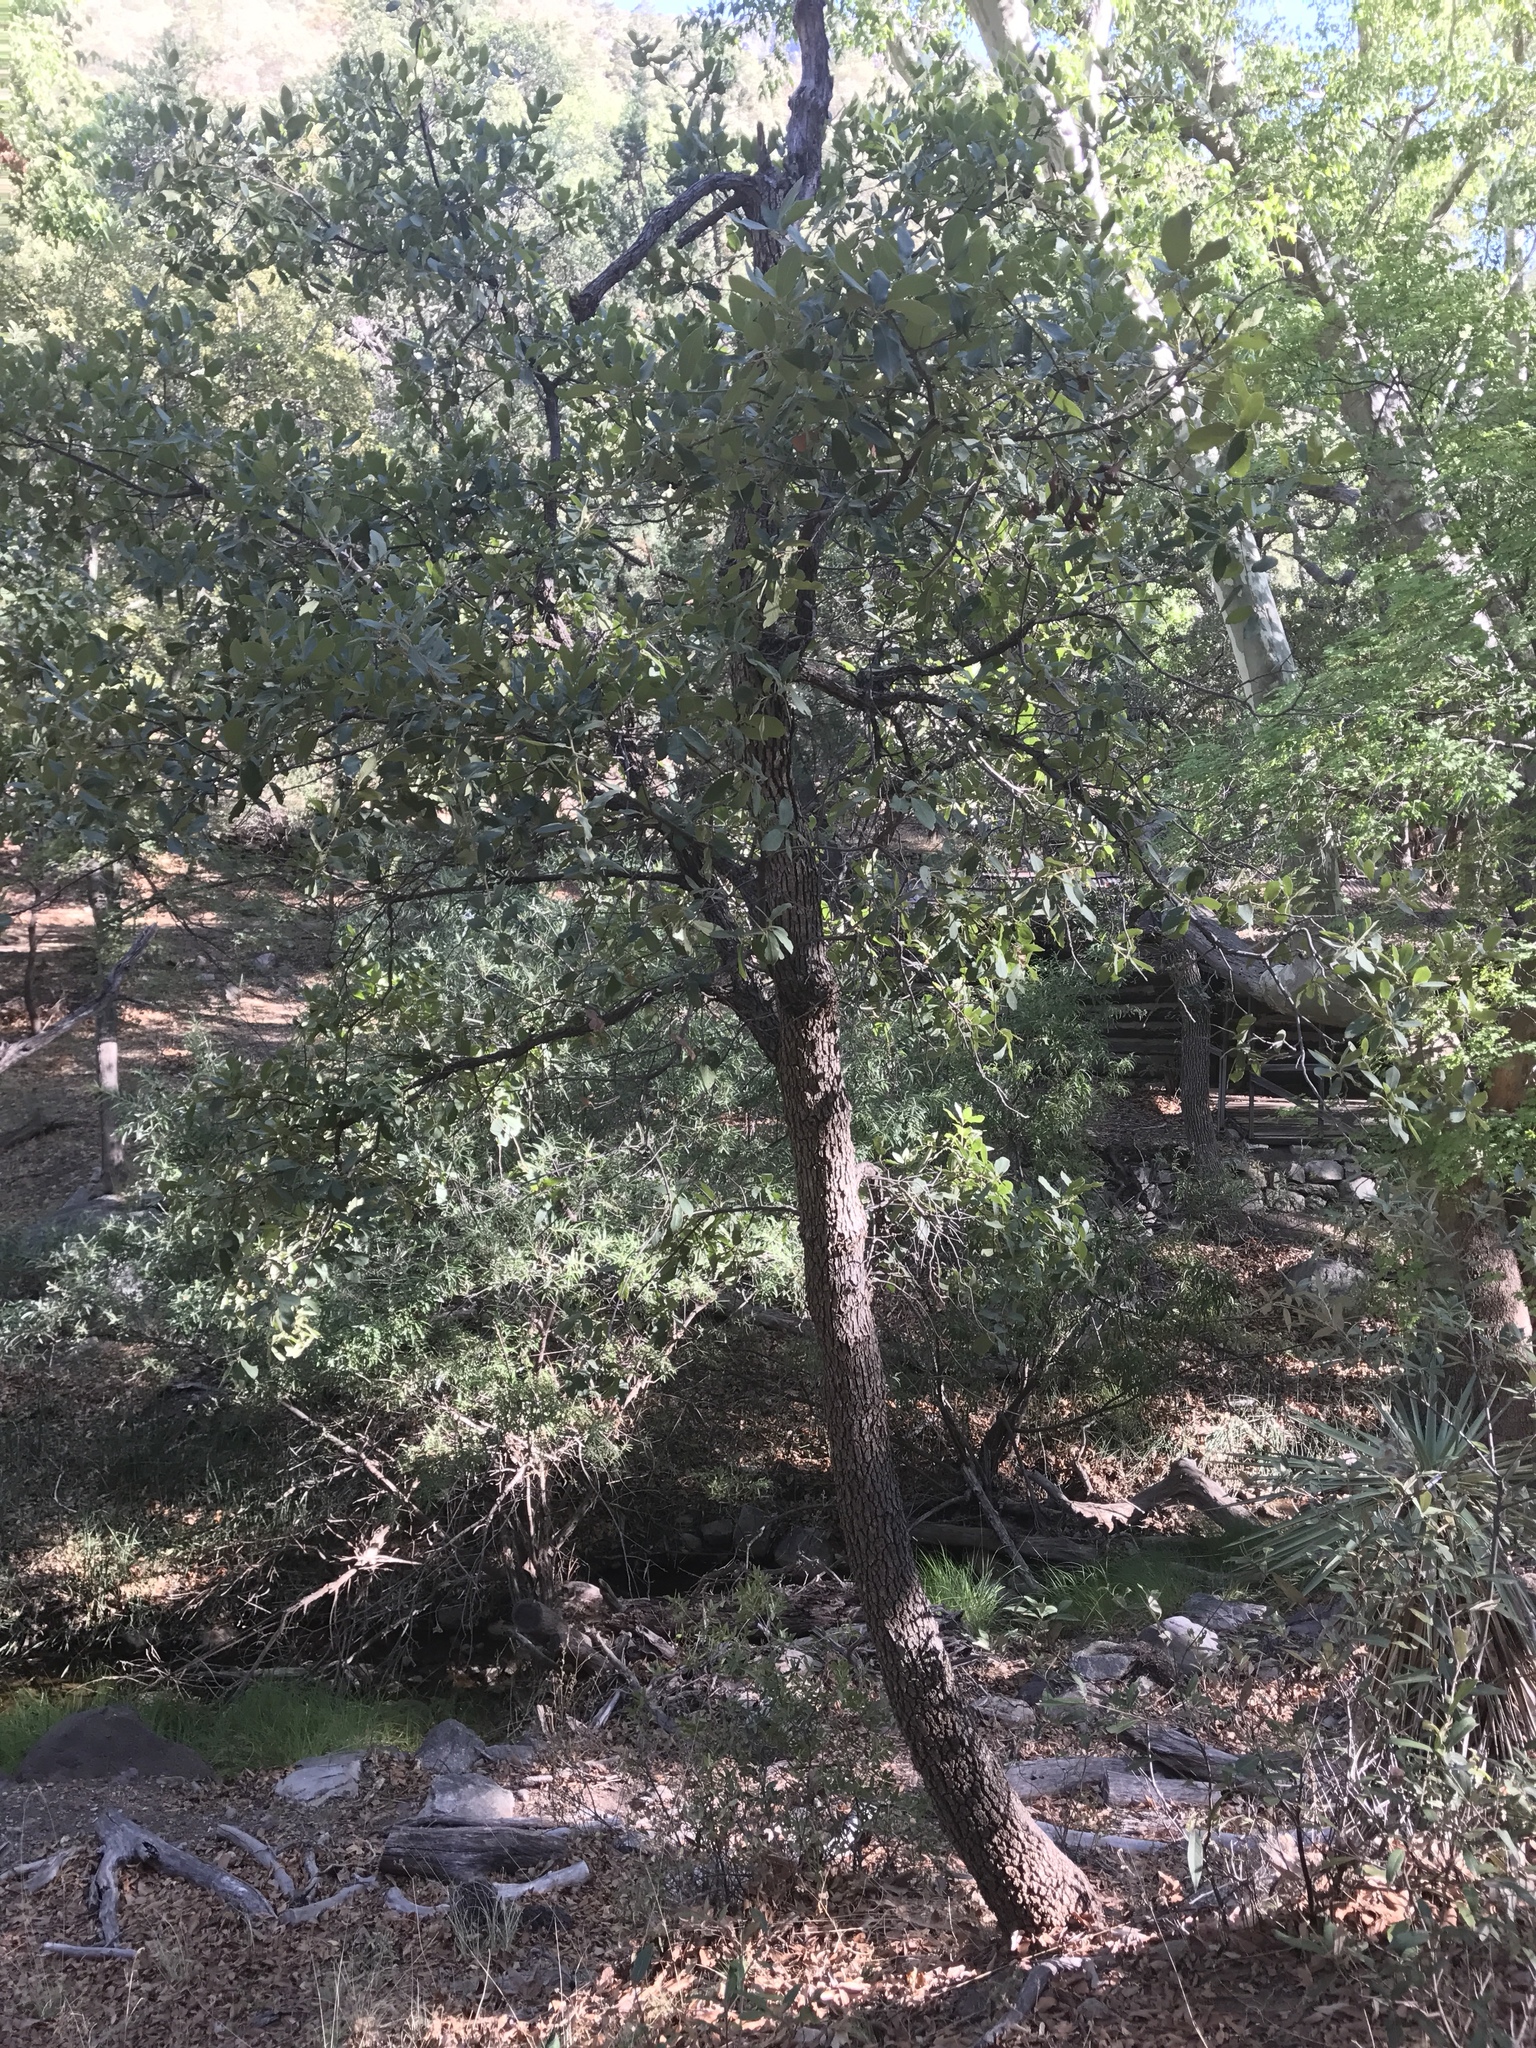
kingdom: Plantae
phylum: Tracheophyta
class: Magnoliopsida
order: Fagales
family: Fagaceae
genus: Quercus
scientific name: Quercus emoryi
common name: Emory oak
